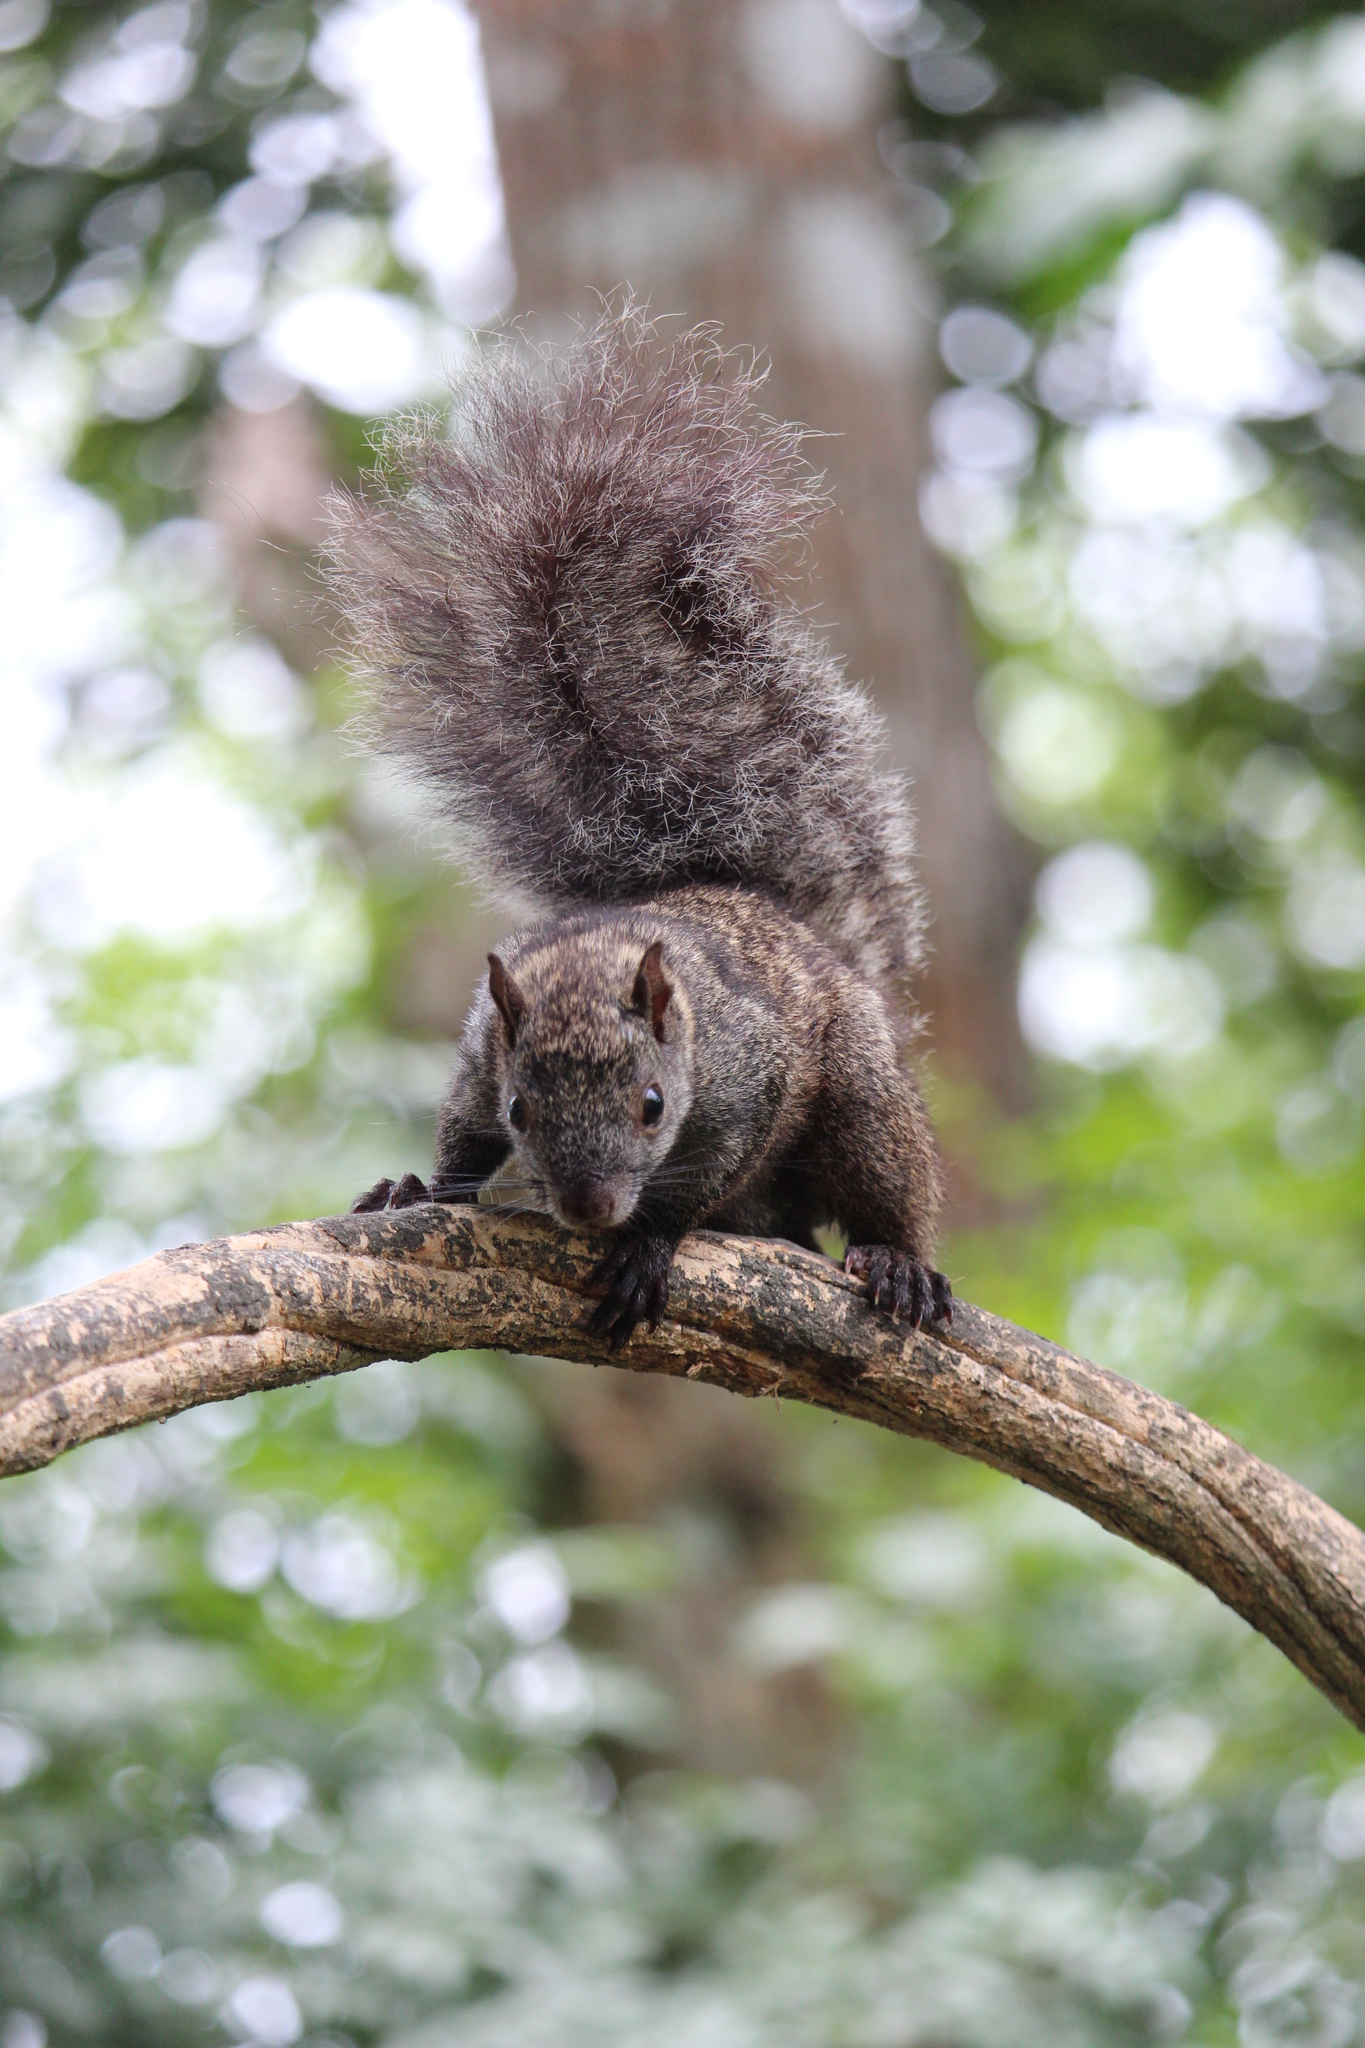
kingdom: Animalia
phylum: Chordata
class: Mammalia
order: Rodentia
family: Sciuridae
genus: Sciurus
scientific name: Sciurus yucatanensis
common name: Yucatan squirrel
